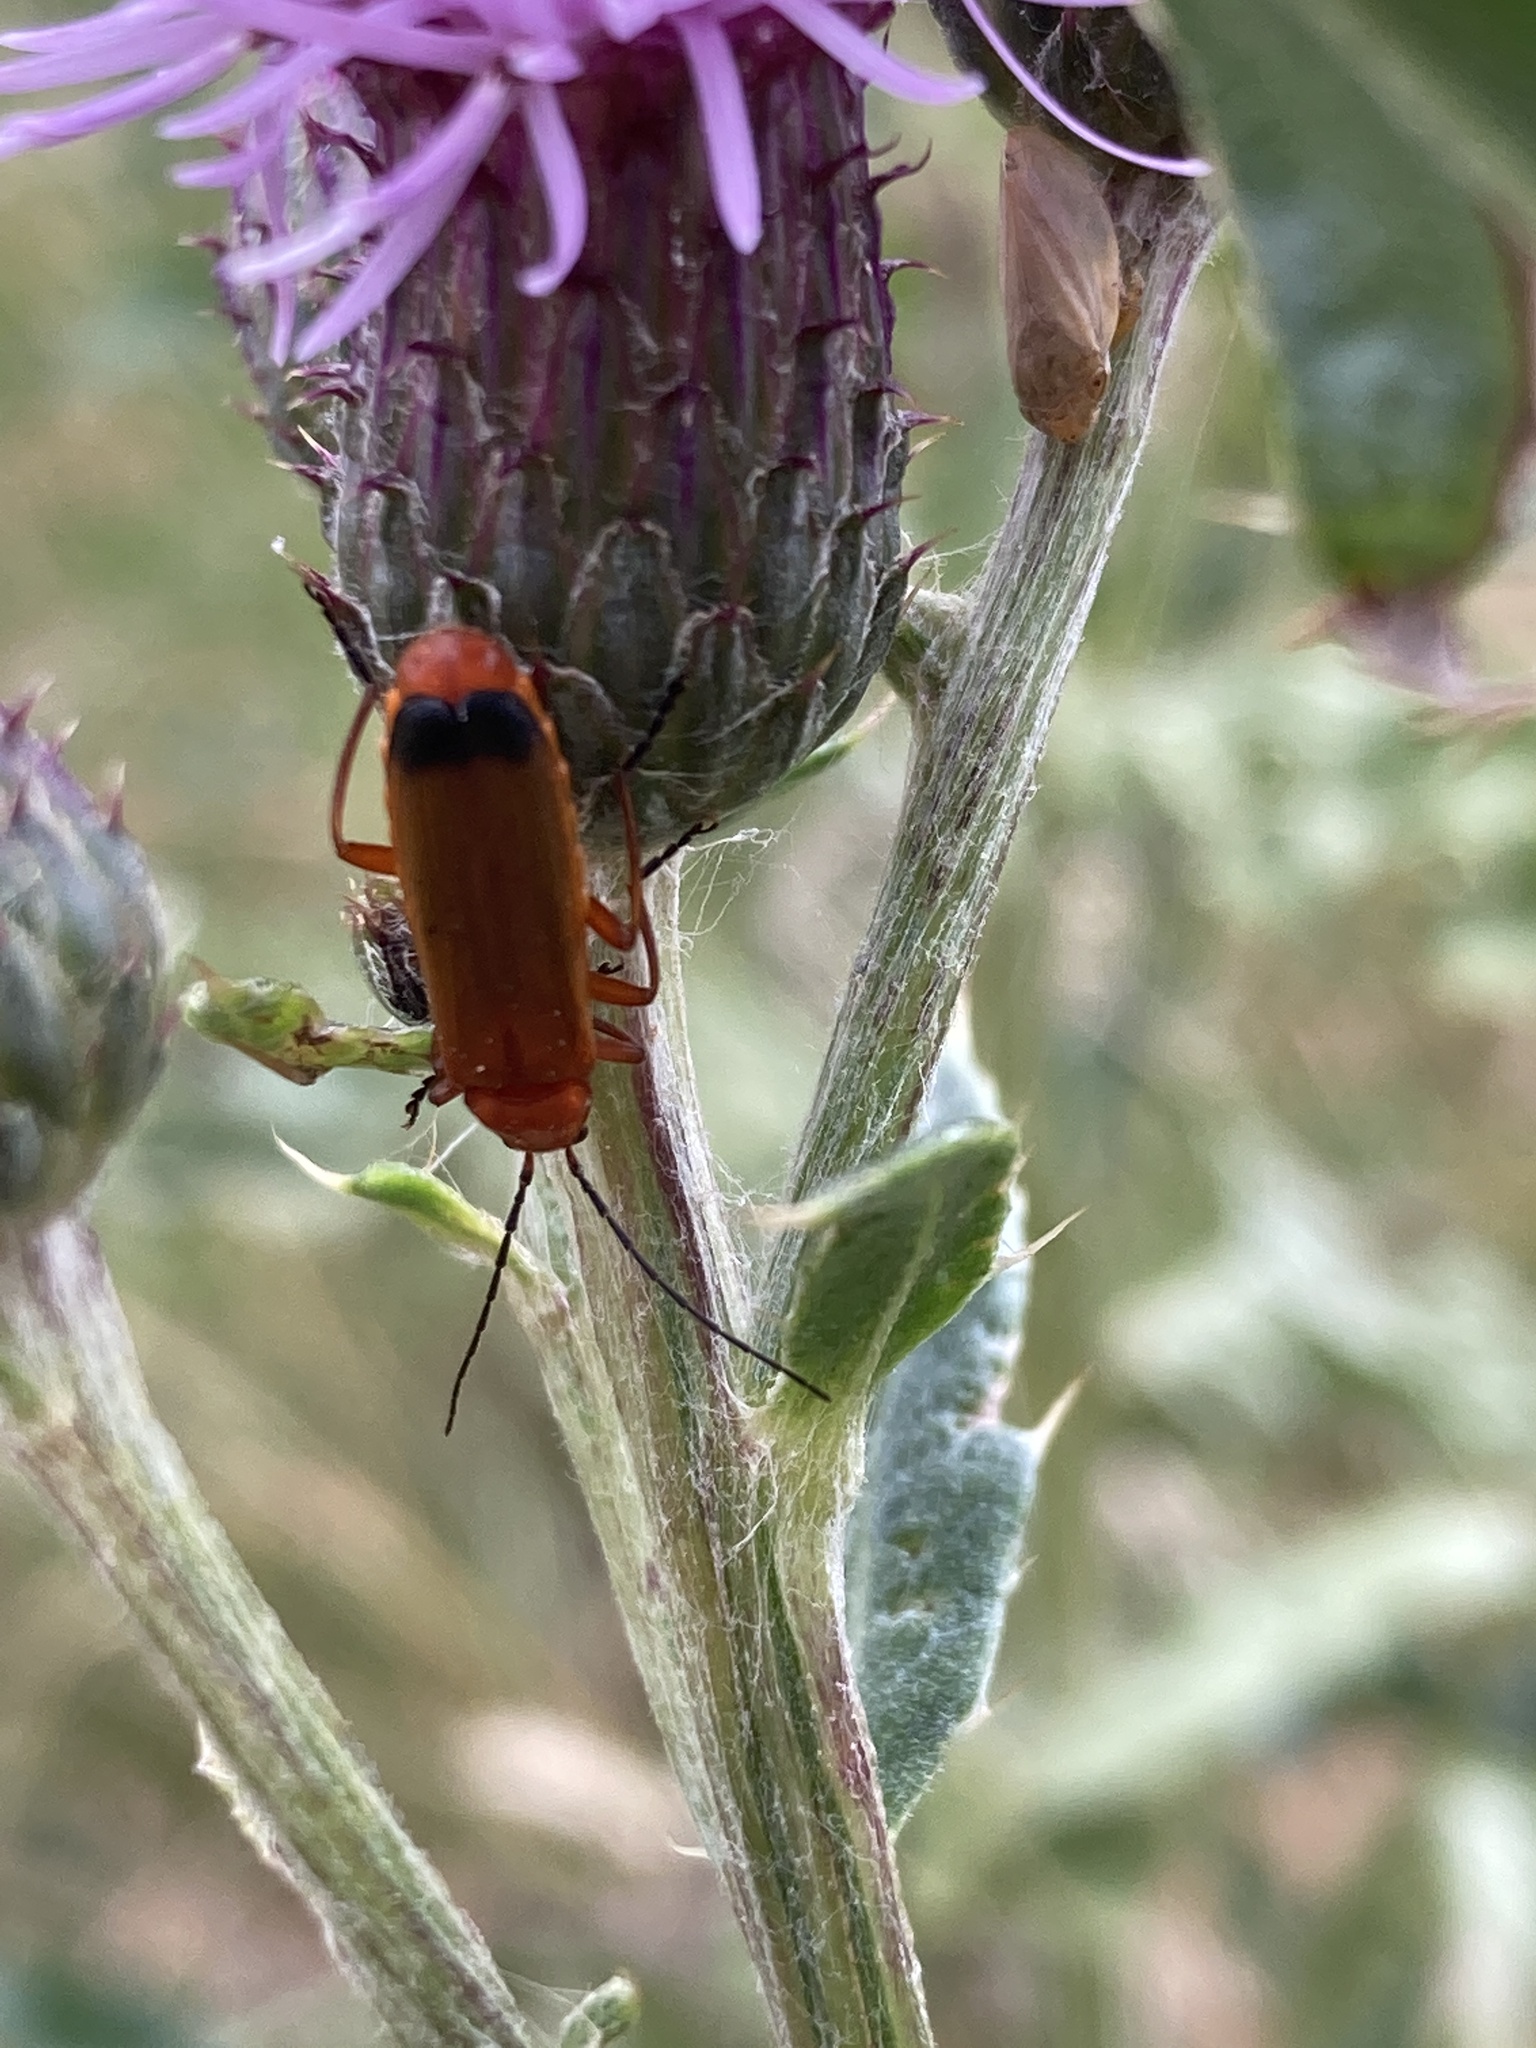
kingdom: Animalia
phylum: Arthropoda
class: Insecta
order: Coleoptera
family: Cantharidae
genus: Rhagonycha
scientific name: Rhagonycha fulva
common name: Common red soldier beetle
